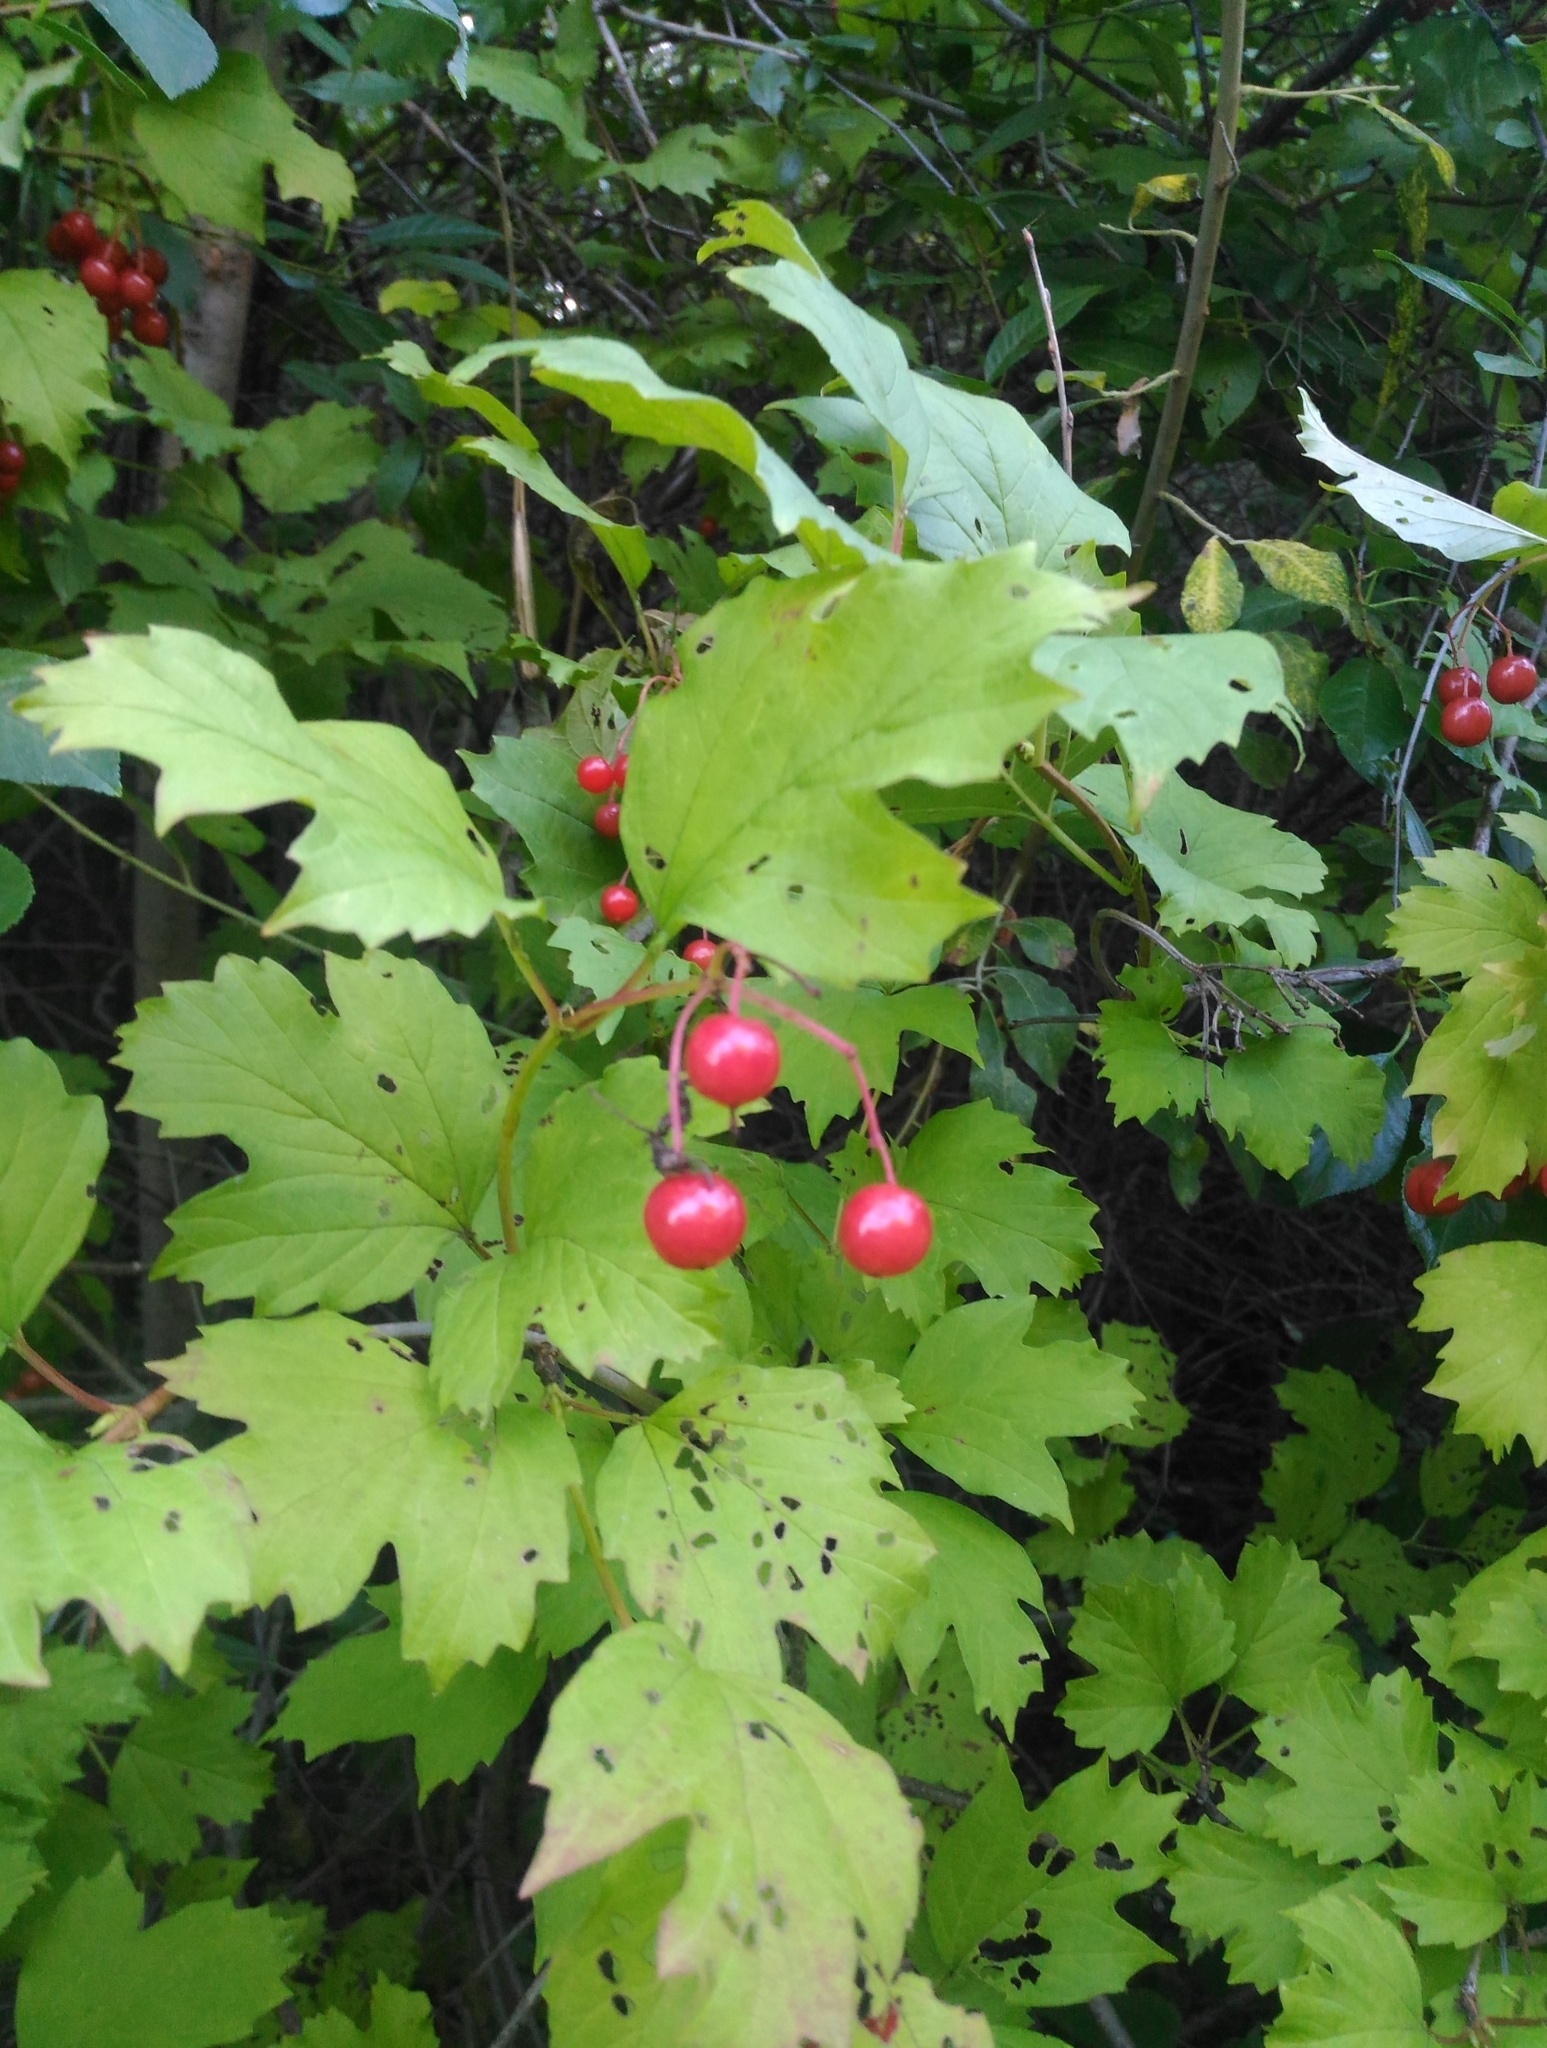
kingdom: Plantae
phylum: Tracheophyta
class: Magnoliopsida
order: Dipsacales
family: Viburnaceae
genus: Viburnum
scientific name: Viburnum opulus
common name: Guelder-rose
